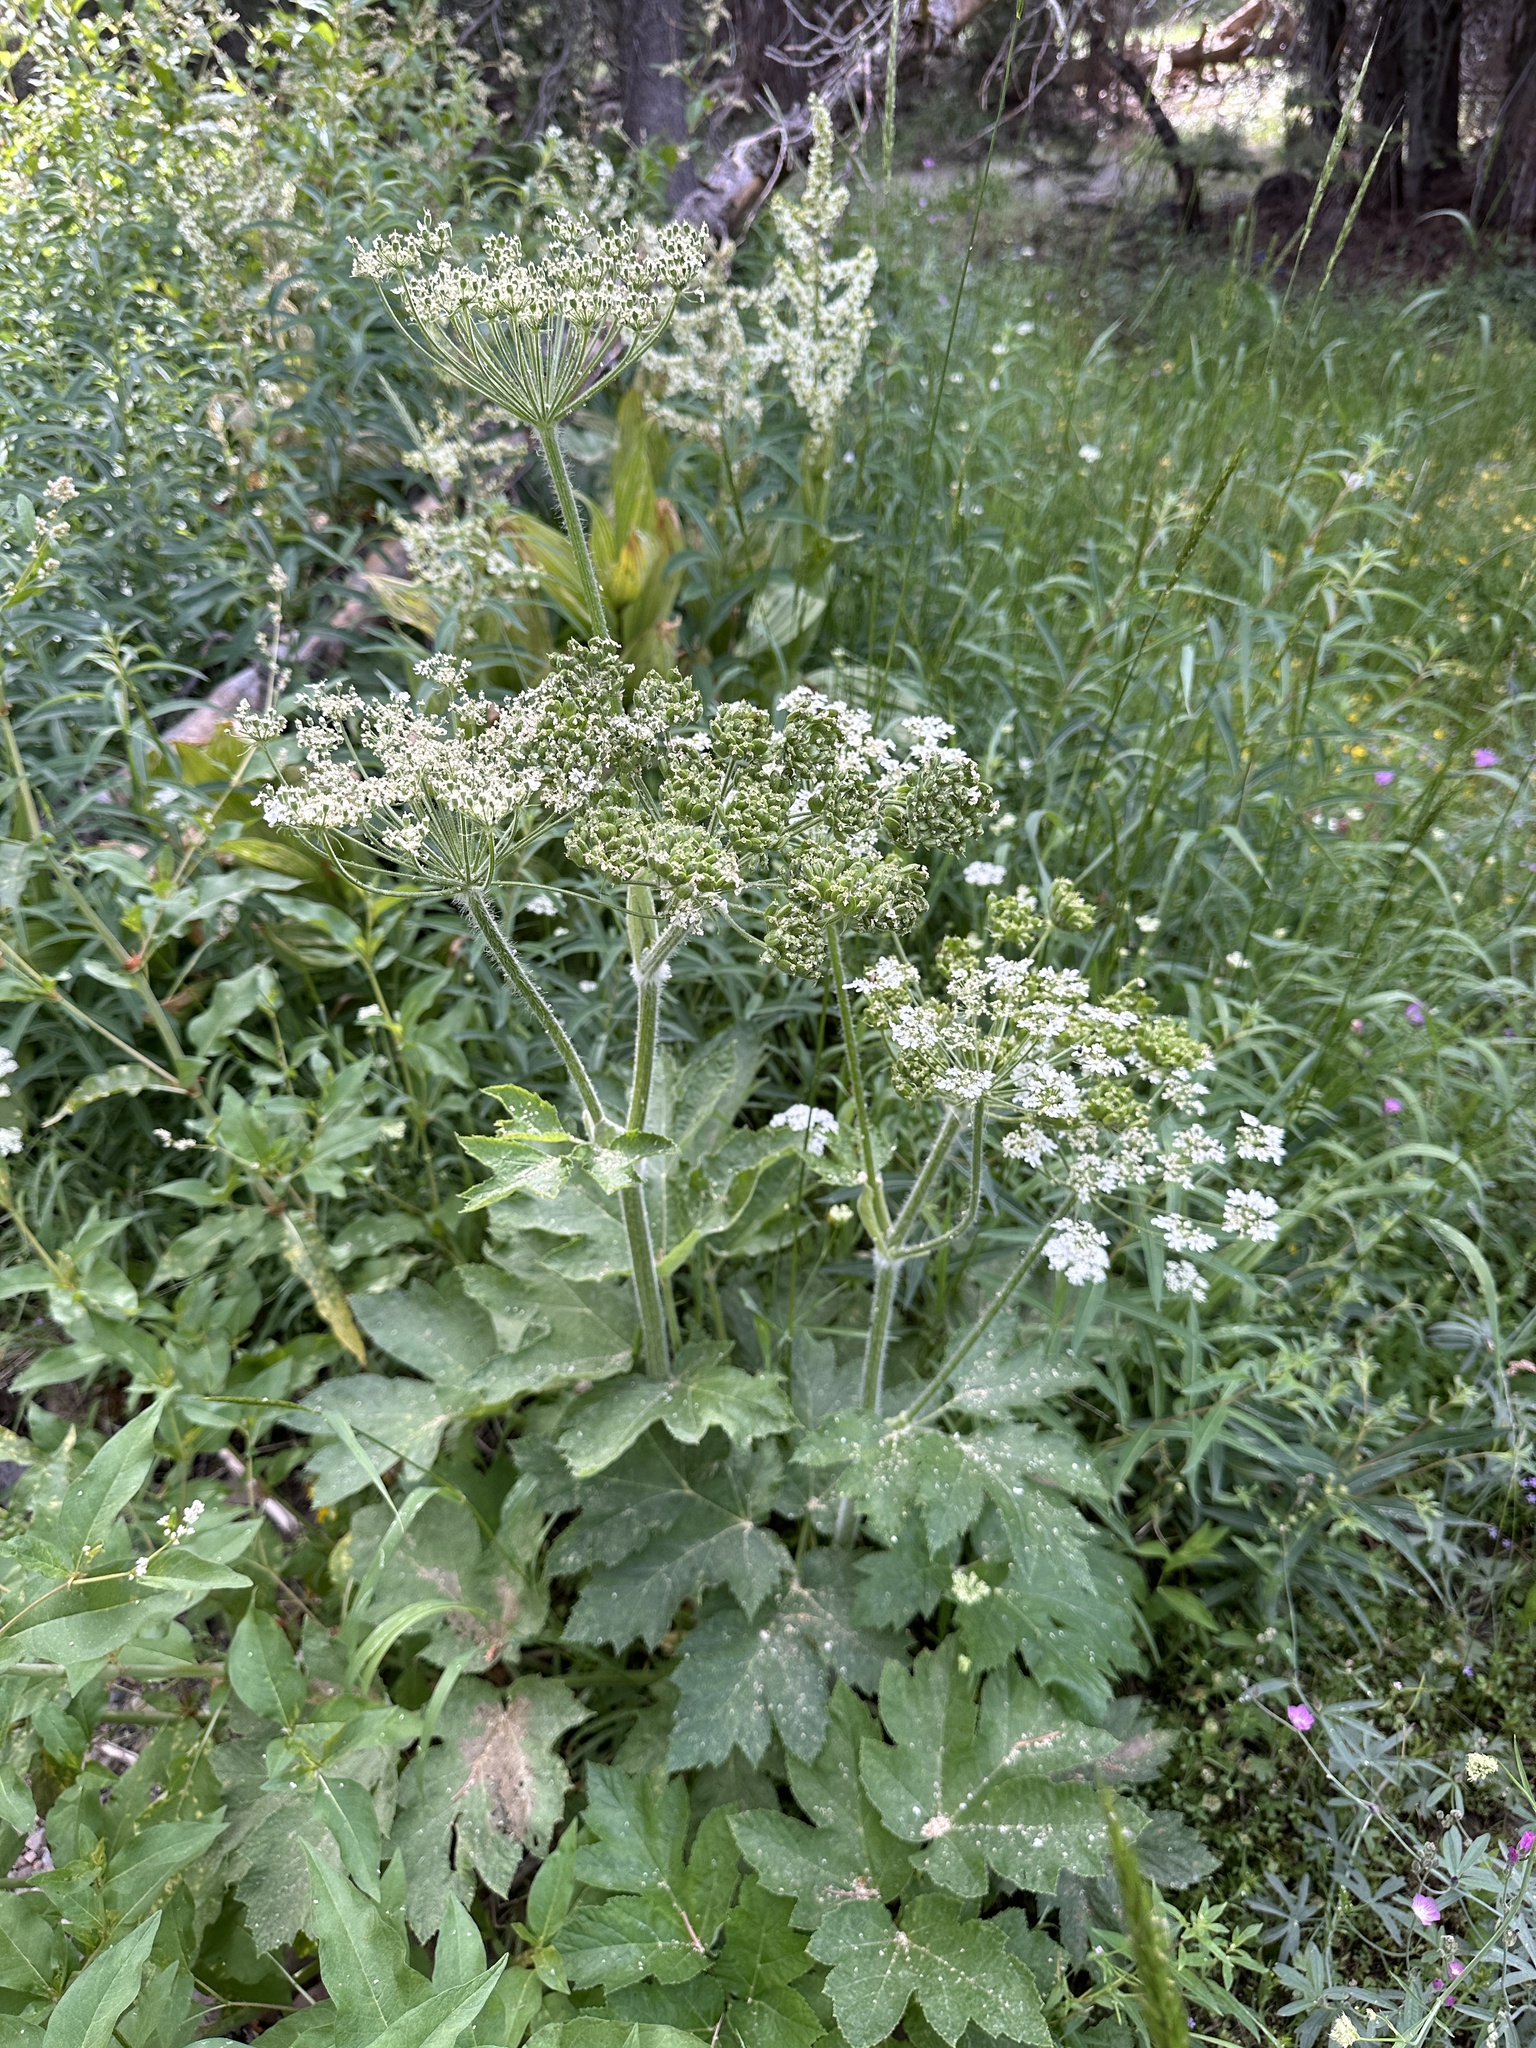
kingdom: Plantae
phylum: Tracheophyta
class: Magnoliopsida
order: Apiales
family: Apiaceae
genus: Heracleum
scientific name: Heracleum maximum
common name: American cow parsnip
